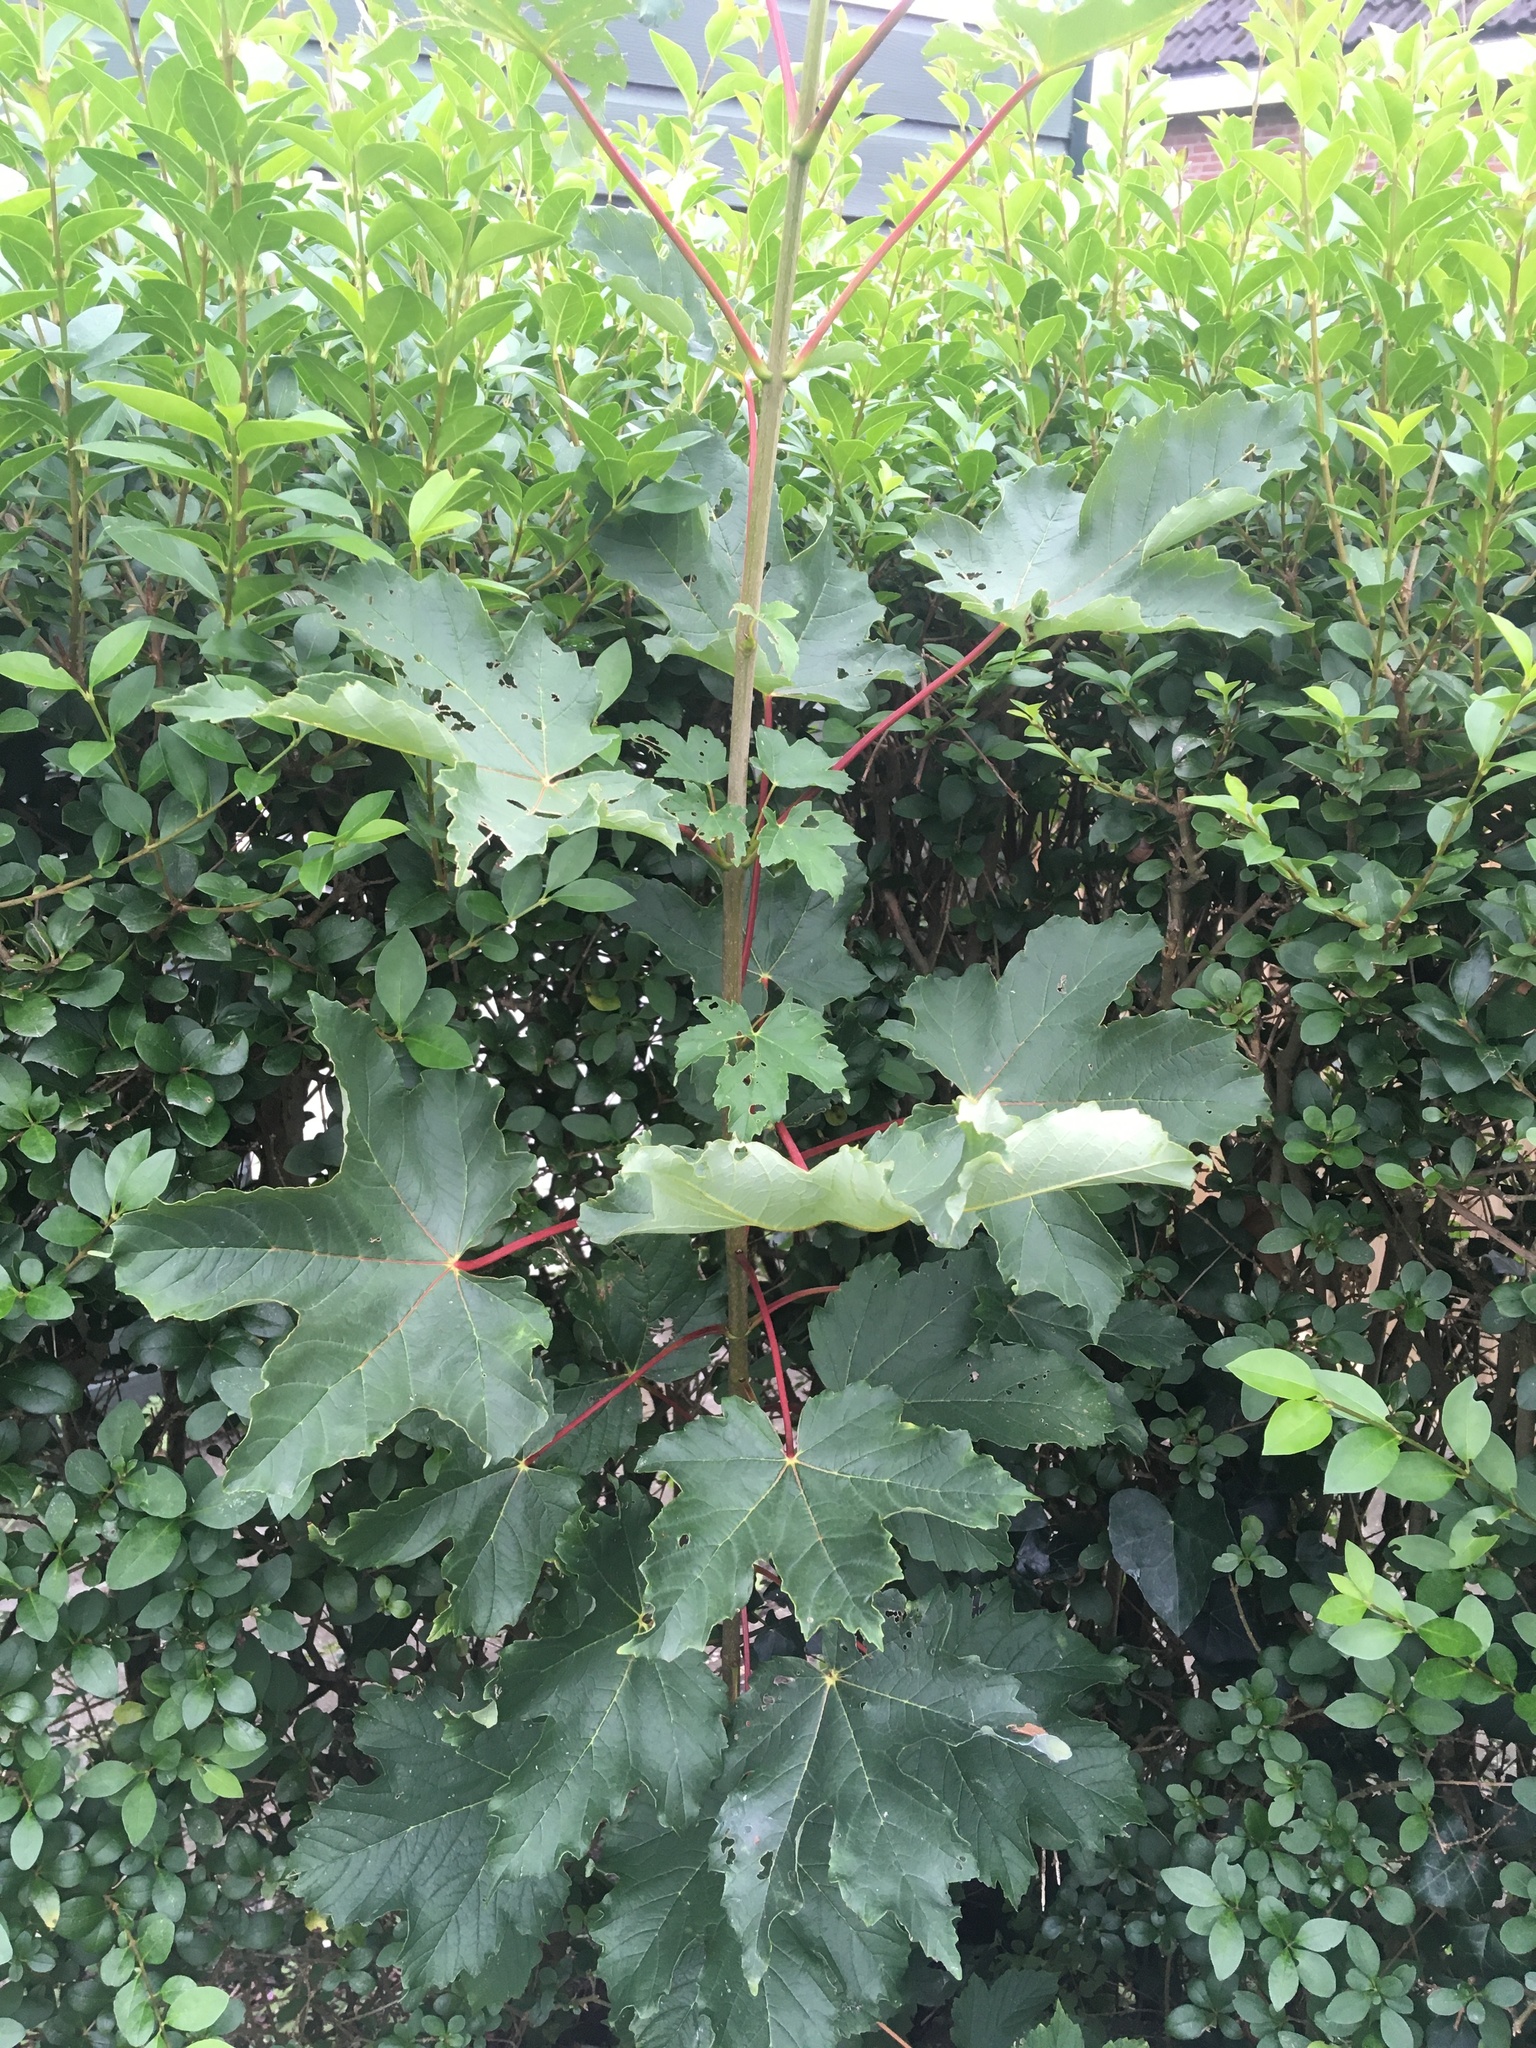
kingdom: Plantae
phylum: Tracheophyta
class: Magnoliopsida
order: Sapindales
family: Sapindaceae
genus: Acer
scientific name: Acer pseudoplatanus
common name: Sycamore
